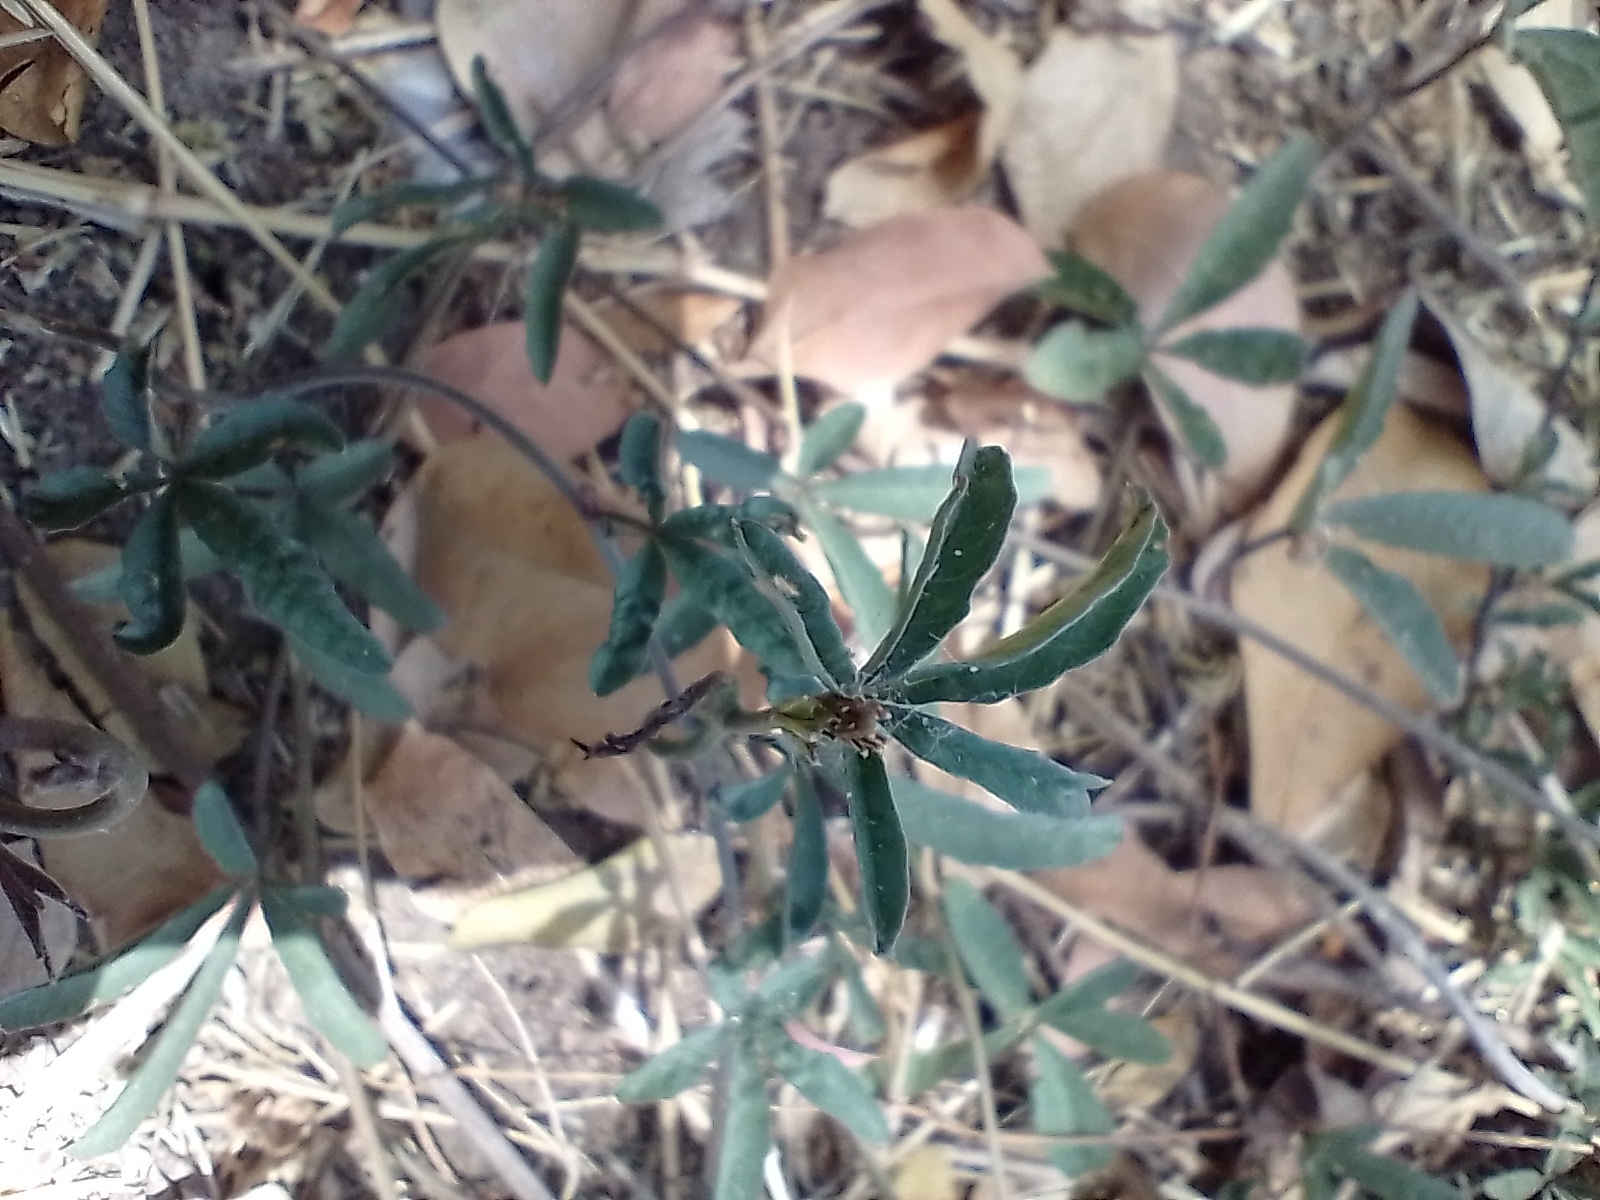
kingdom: Plantae
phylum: Tracheophyta
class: Magnoliopsida
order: Solanales
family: Convolvulaceae
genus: Distimake
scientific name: Distimake quinquefolius
